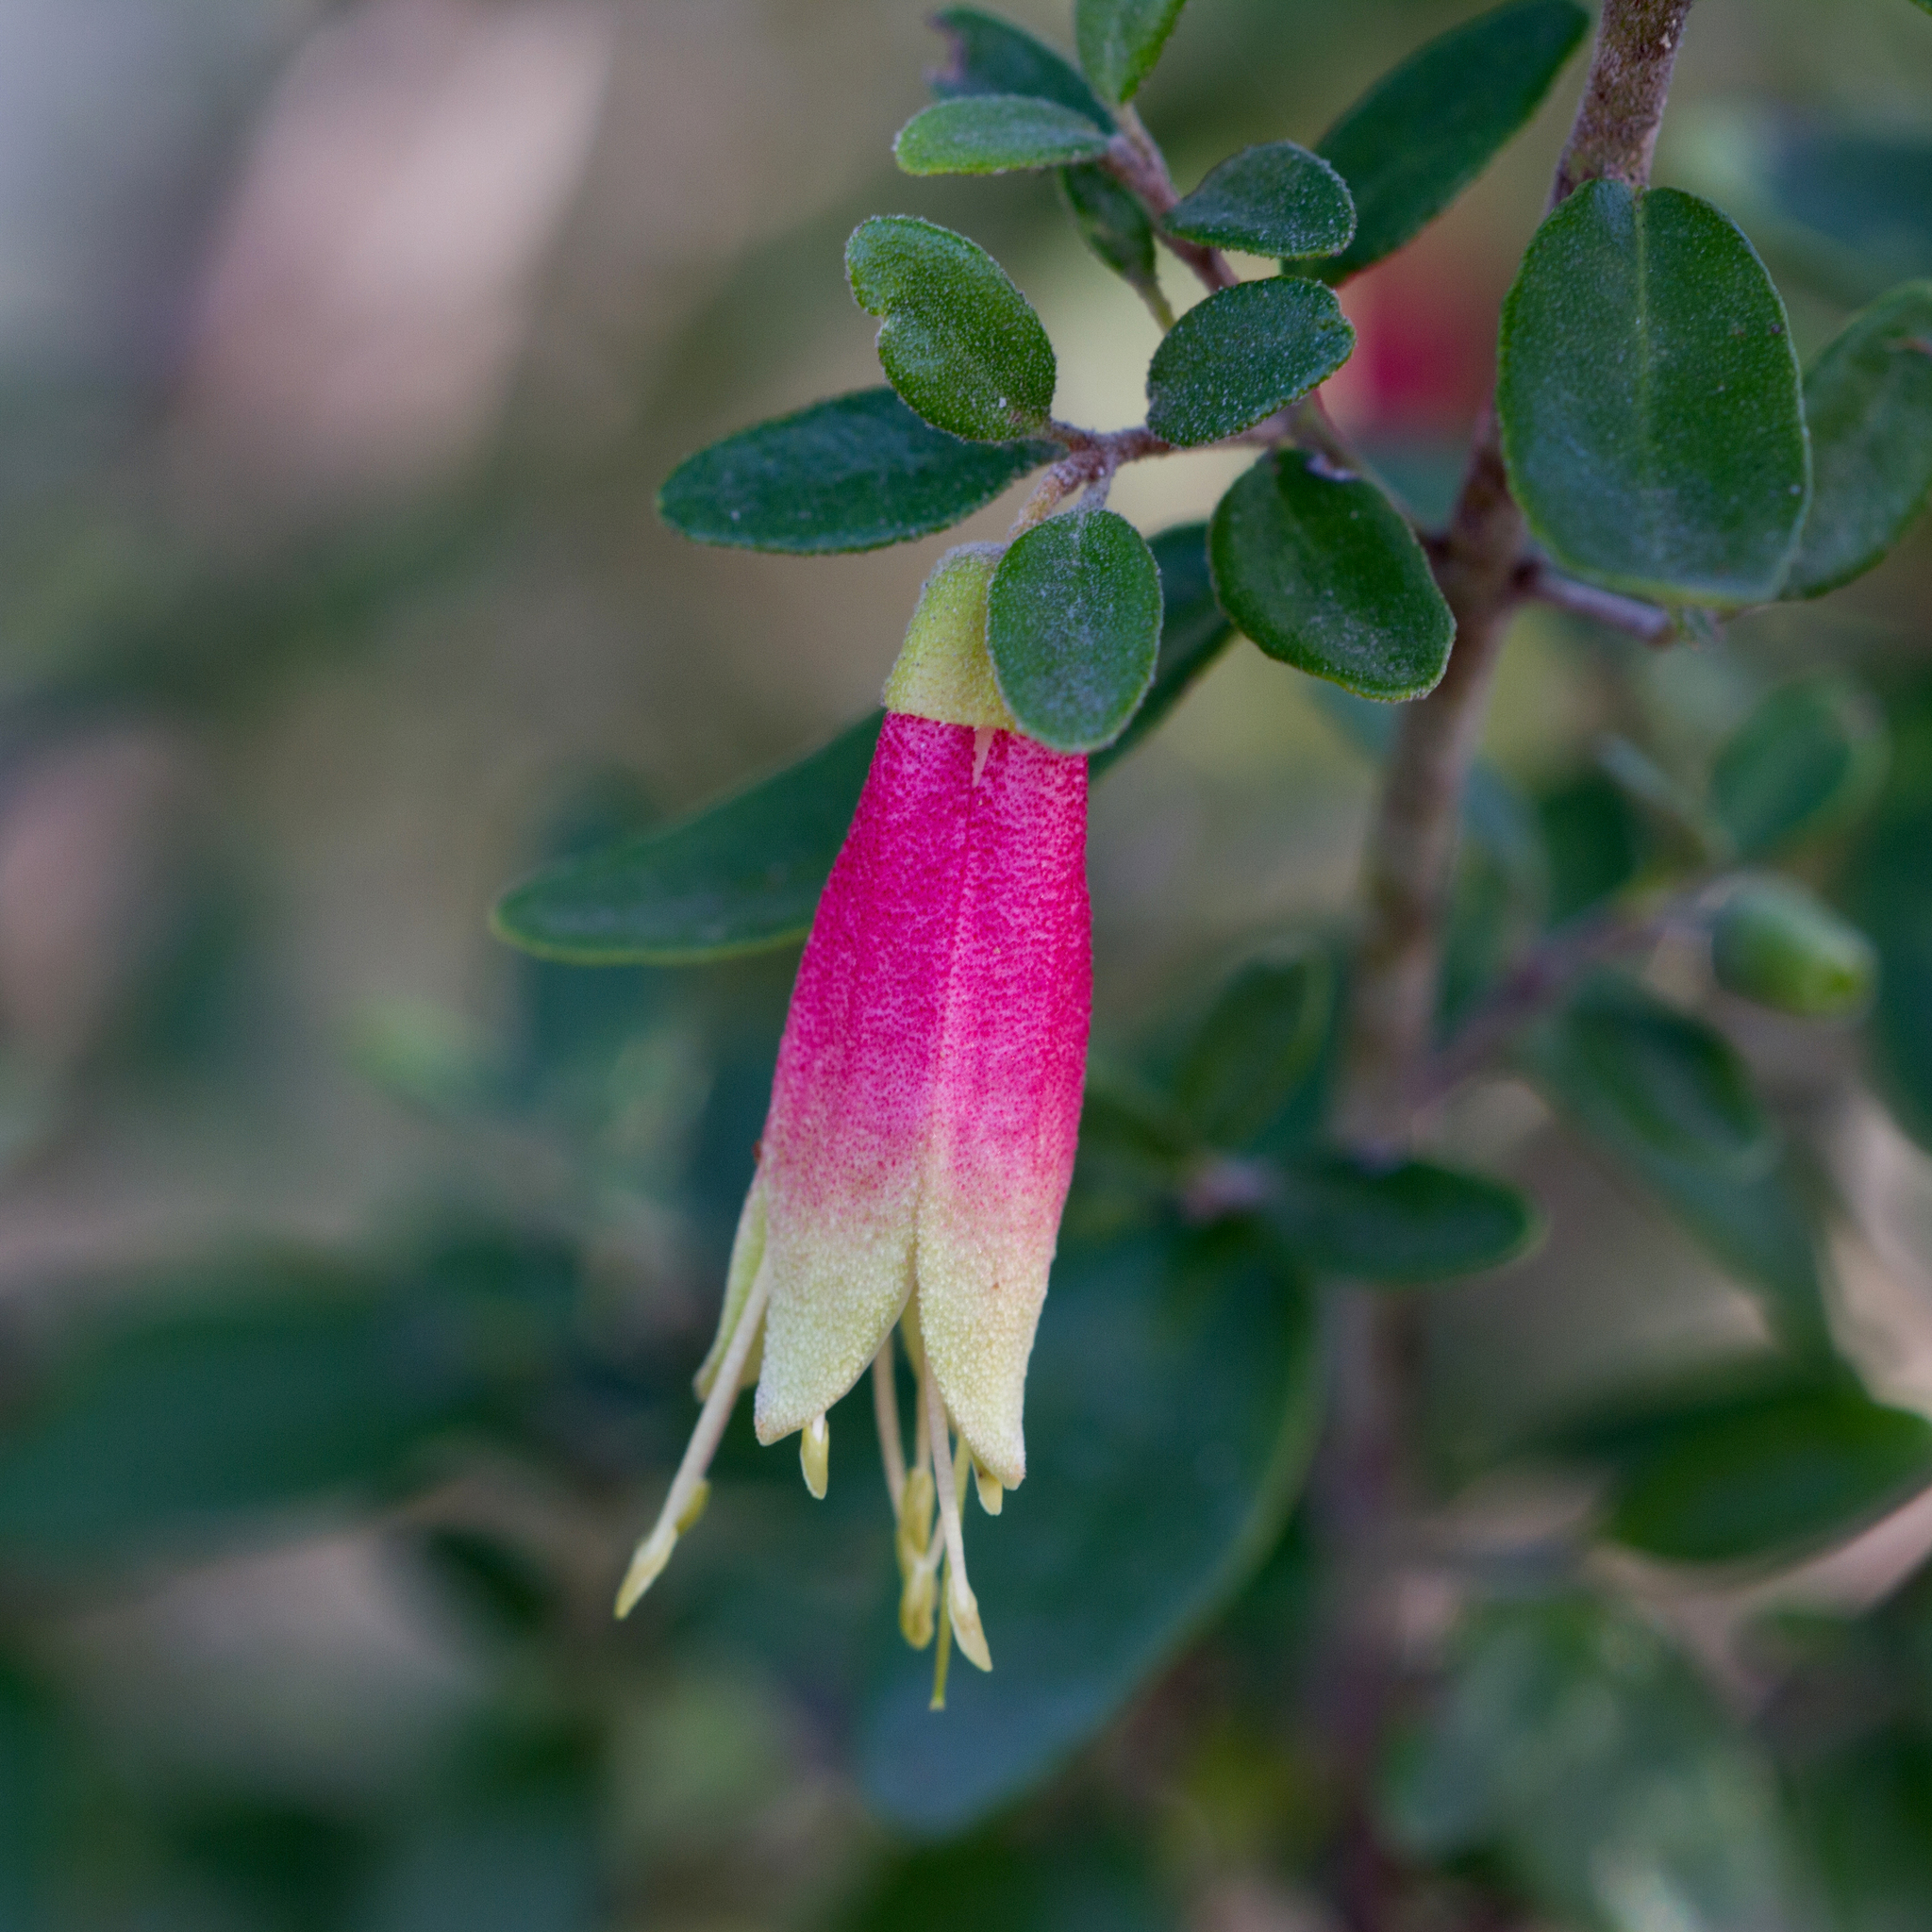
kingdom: Plantae
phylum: Tracheophyta
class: Magnoliopsida
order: Sapindales
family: Rutaceae
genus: Correa
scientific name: Correa glabra
